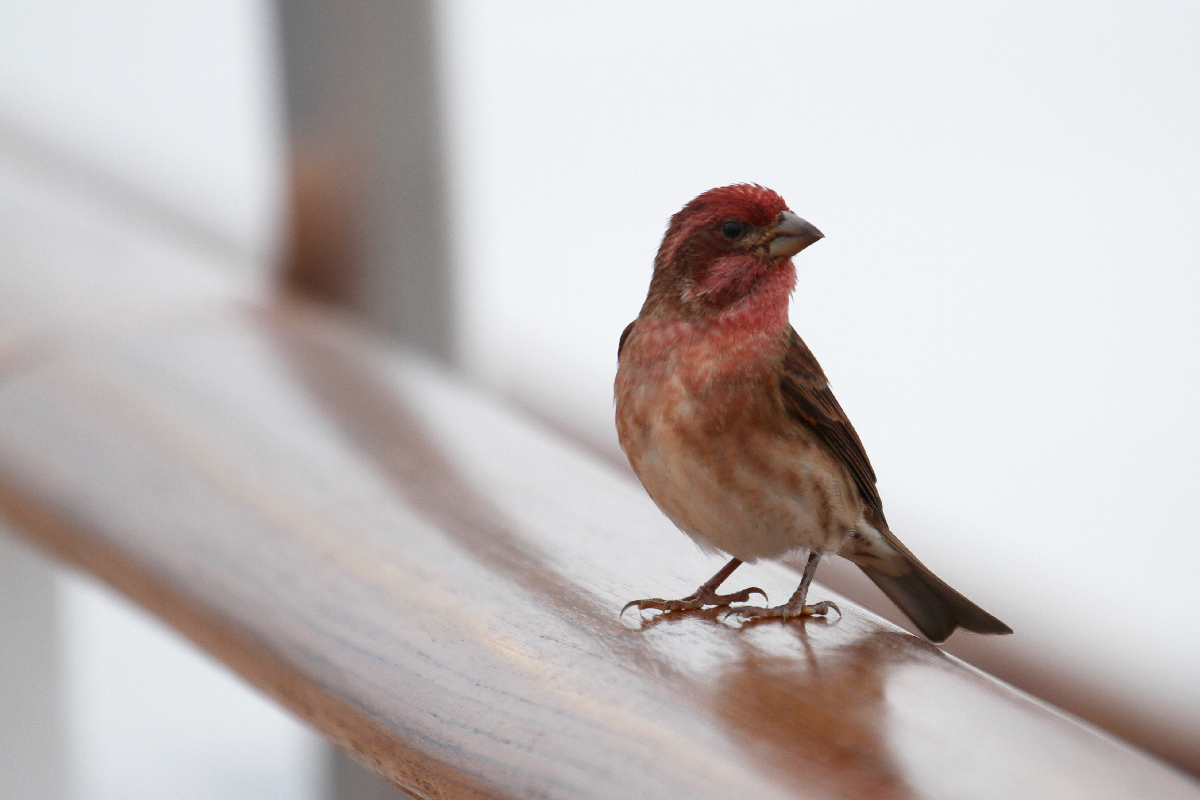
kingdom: Animalia
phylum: Chordata
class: Aves
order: Passeriformes
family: Fringillidae
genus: Haemorhous
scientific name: Haemorhous purpureus
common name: Purple finch
